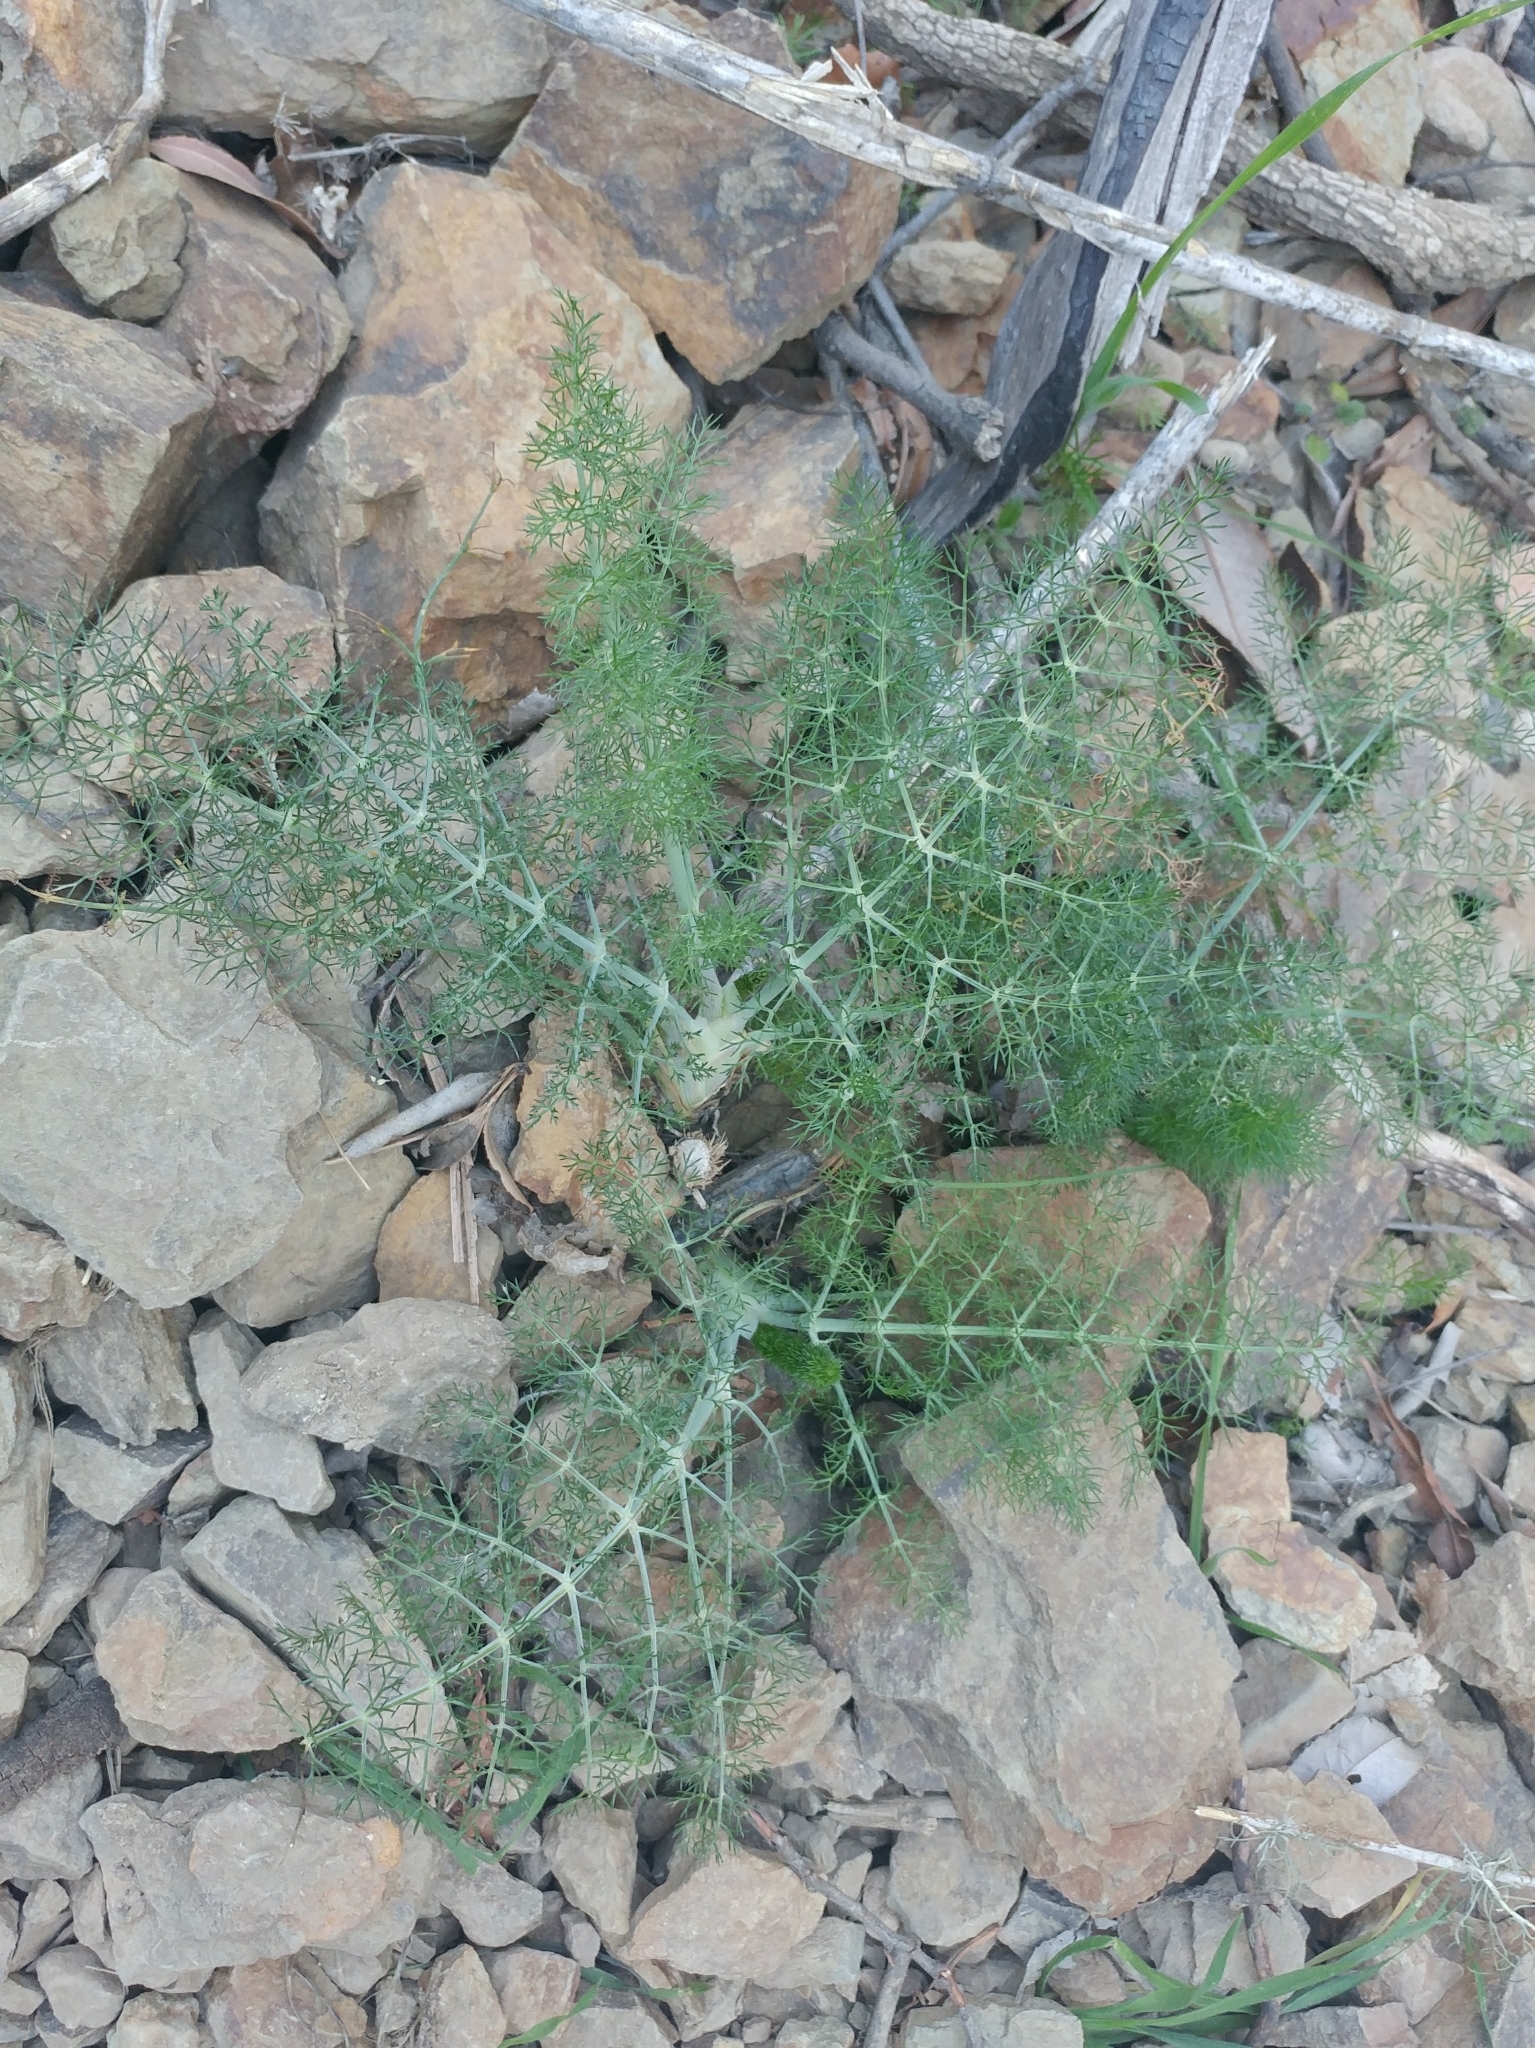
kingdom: Plantae
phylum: Tracheophyta
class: Magnoliopsida
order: Apiales
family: Apiaceae
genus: Foeniculum
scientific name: Foeniculum vulgare
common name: Fennel
